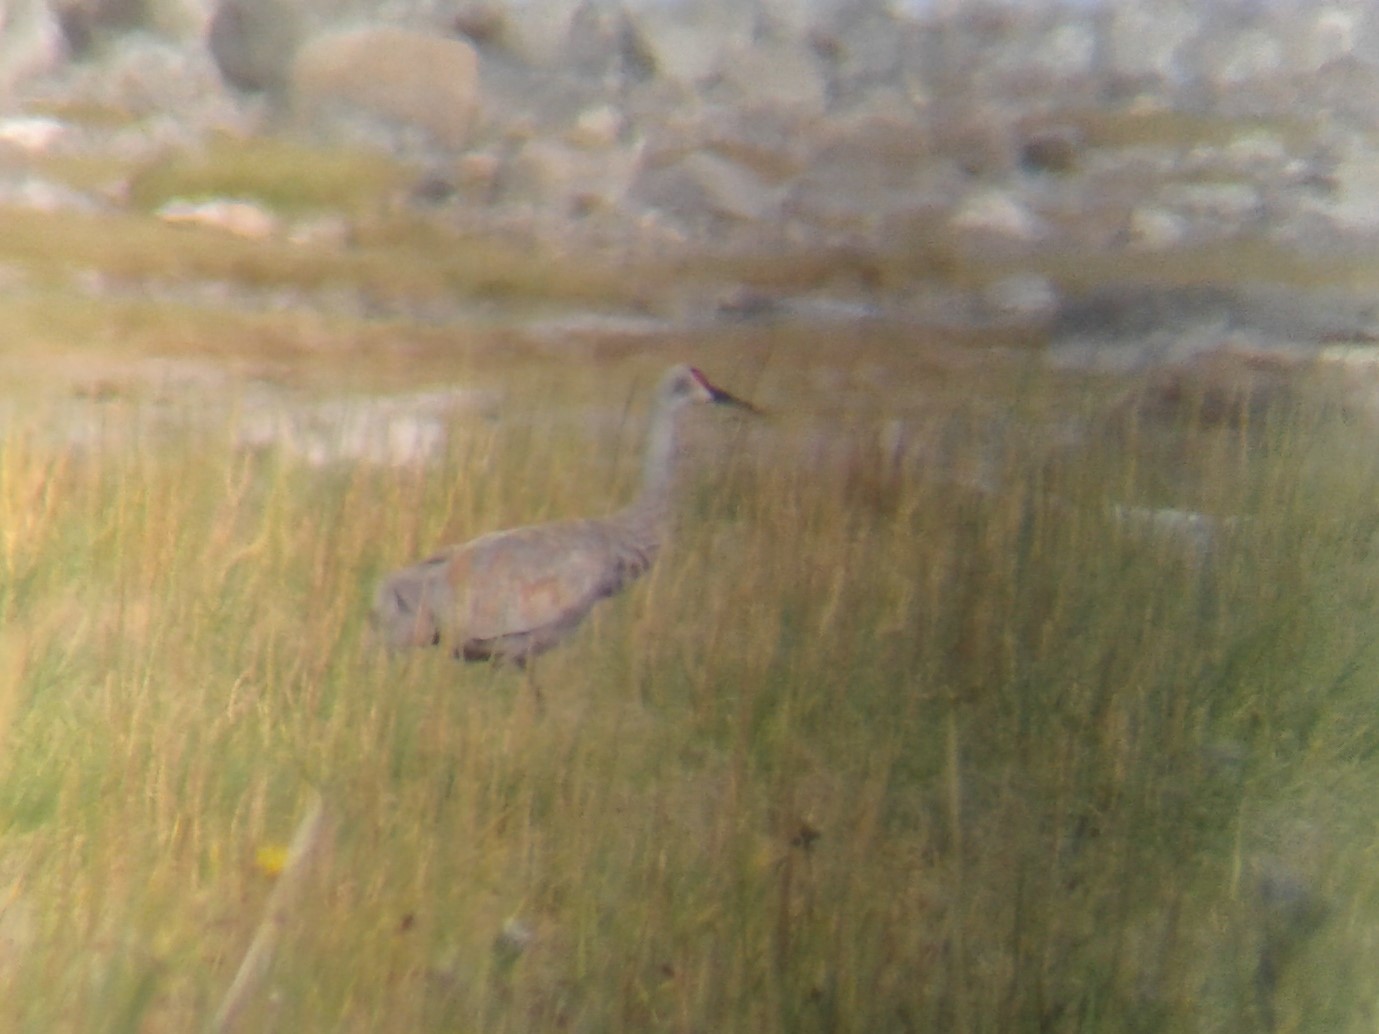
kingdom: Animalia
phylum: Chordata
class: Aves
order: Gruiformes
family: Gruidae
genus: Grus
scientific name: Grus canadensis
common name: Sandhill crane
